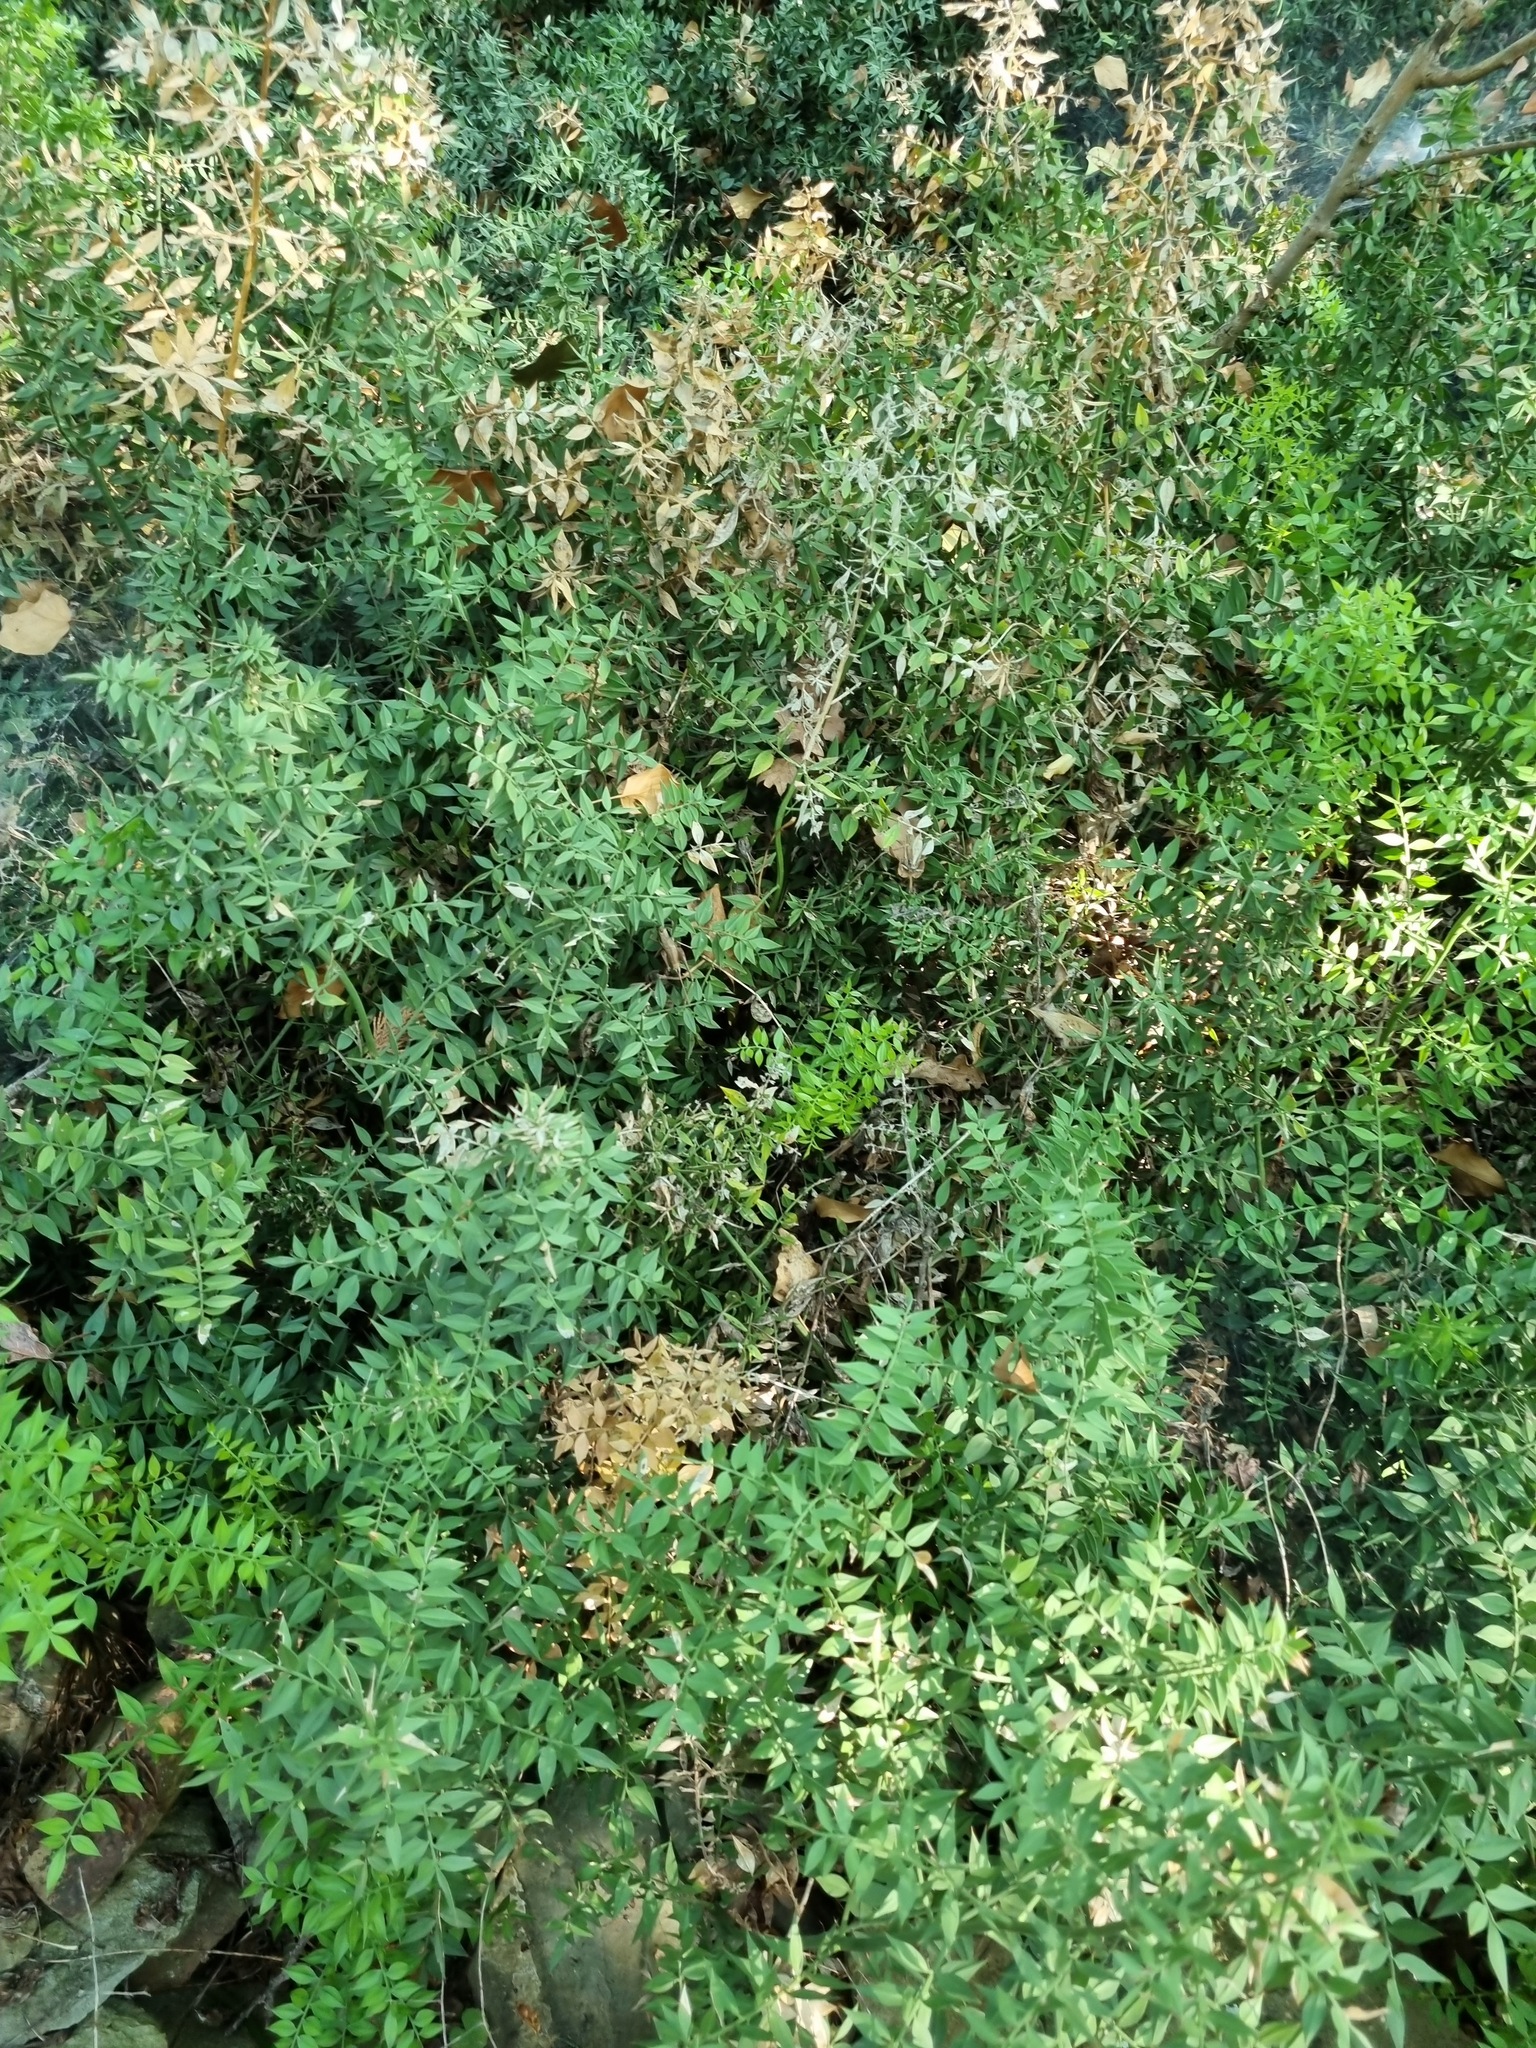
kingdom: Plantae
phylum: Tracheophyta
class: Liliopsida
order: Asparagales
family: Asparagaceae
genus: Ruscus
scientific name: Ruscus aculeatus
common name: Butcher's-broom
